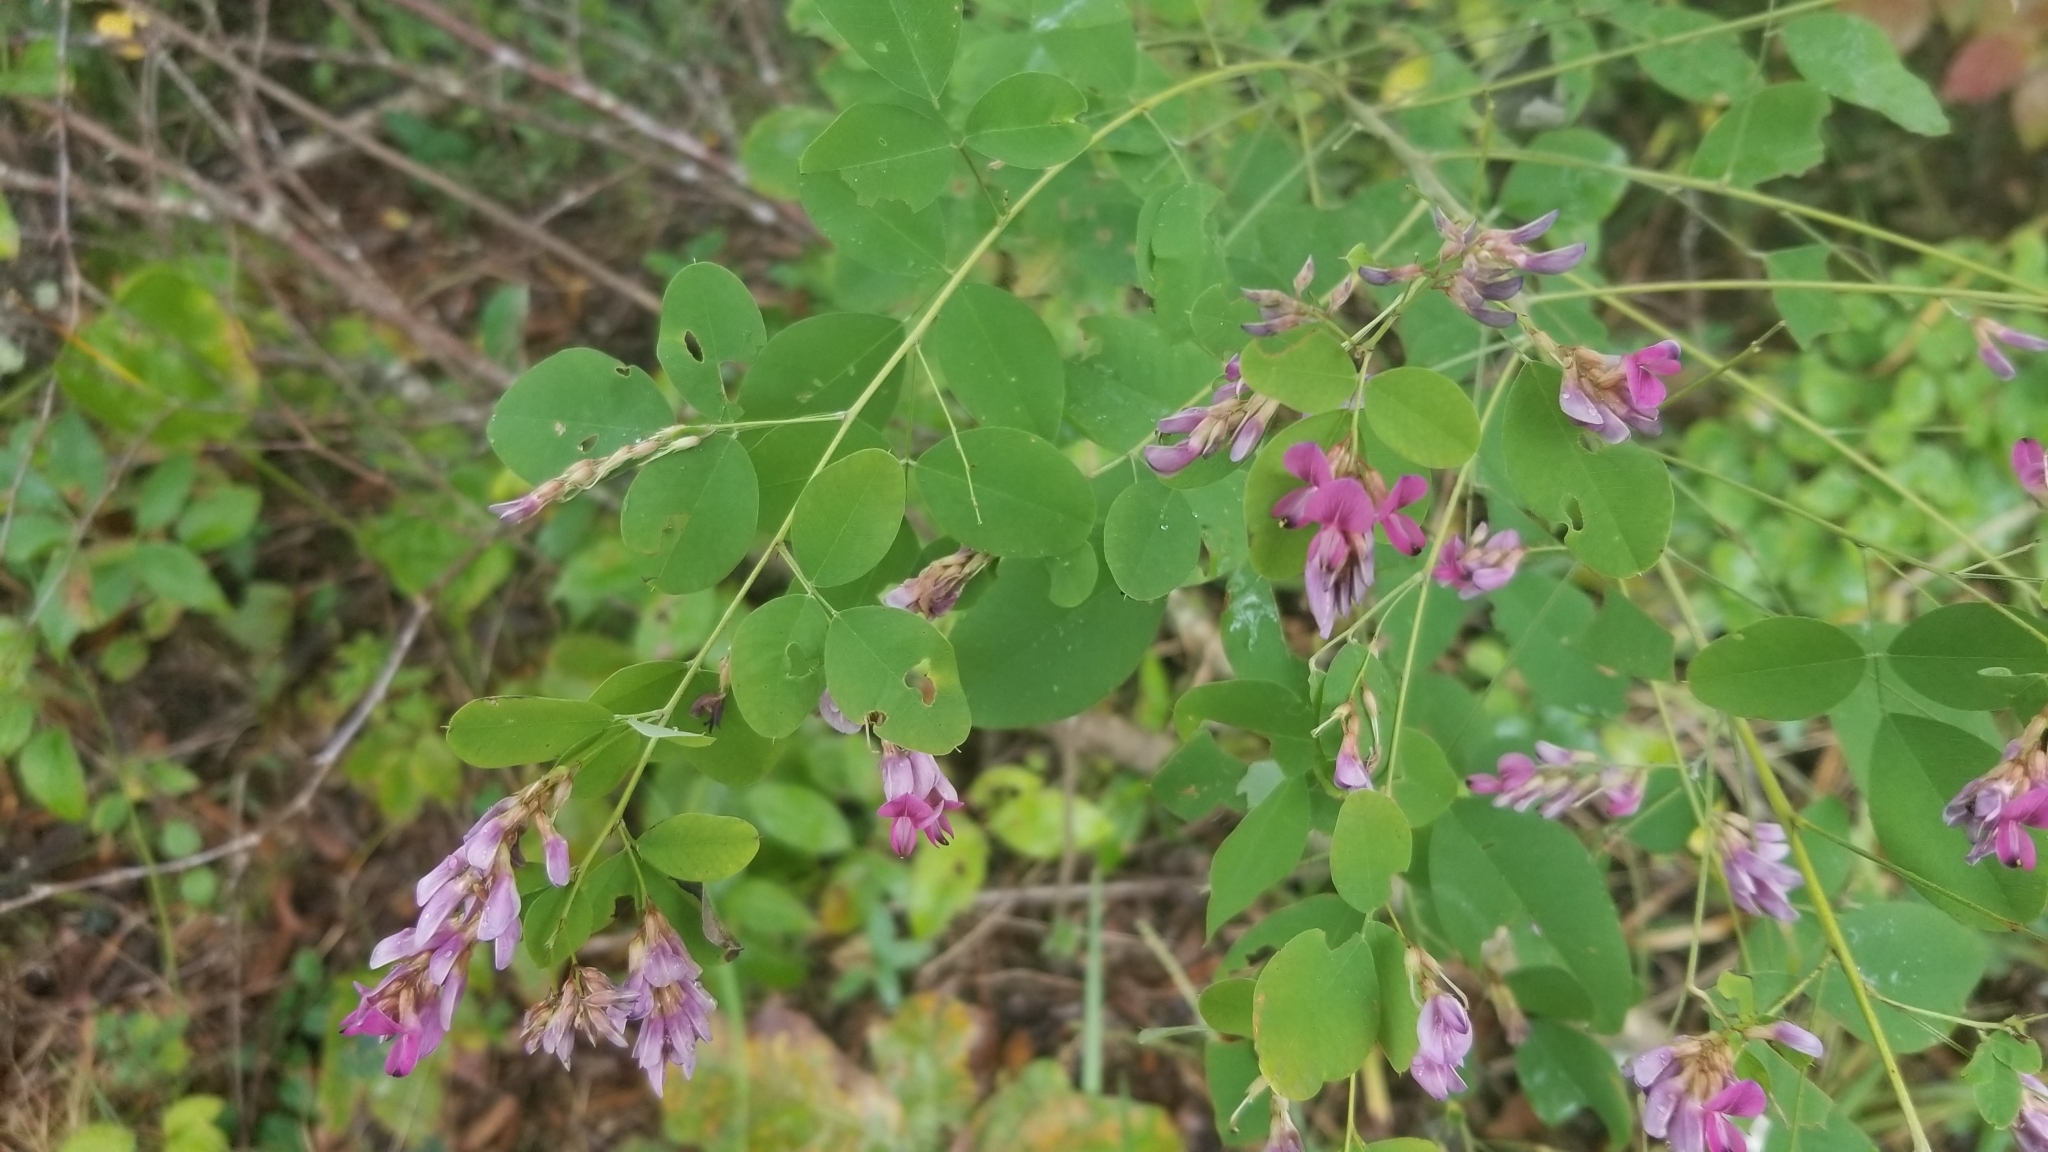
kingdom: Plantae
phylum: Tracheophyta
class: Magnoliopsida
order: Fabales
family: Fabaceae
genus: Lespedeza
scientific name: Lespedeza bicolor
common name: Shrub lespedeza
